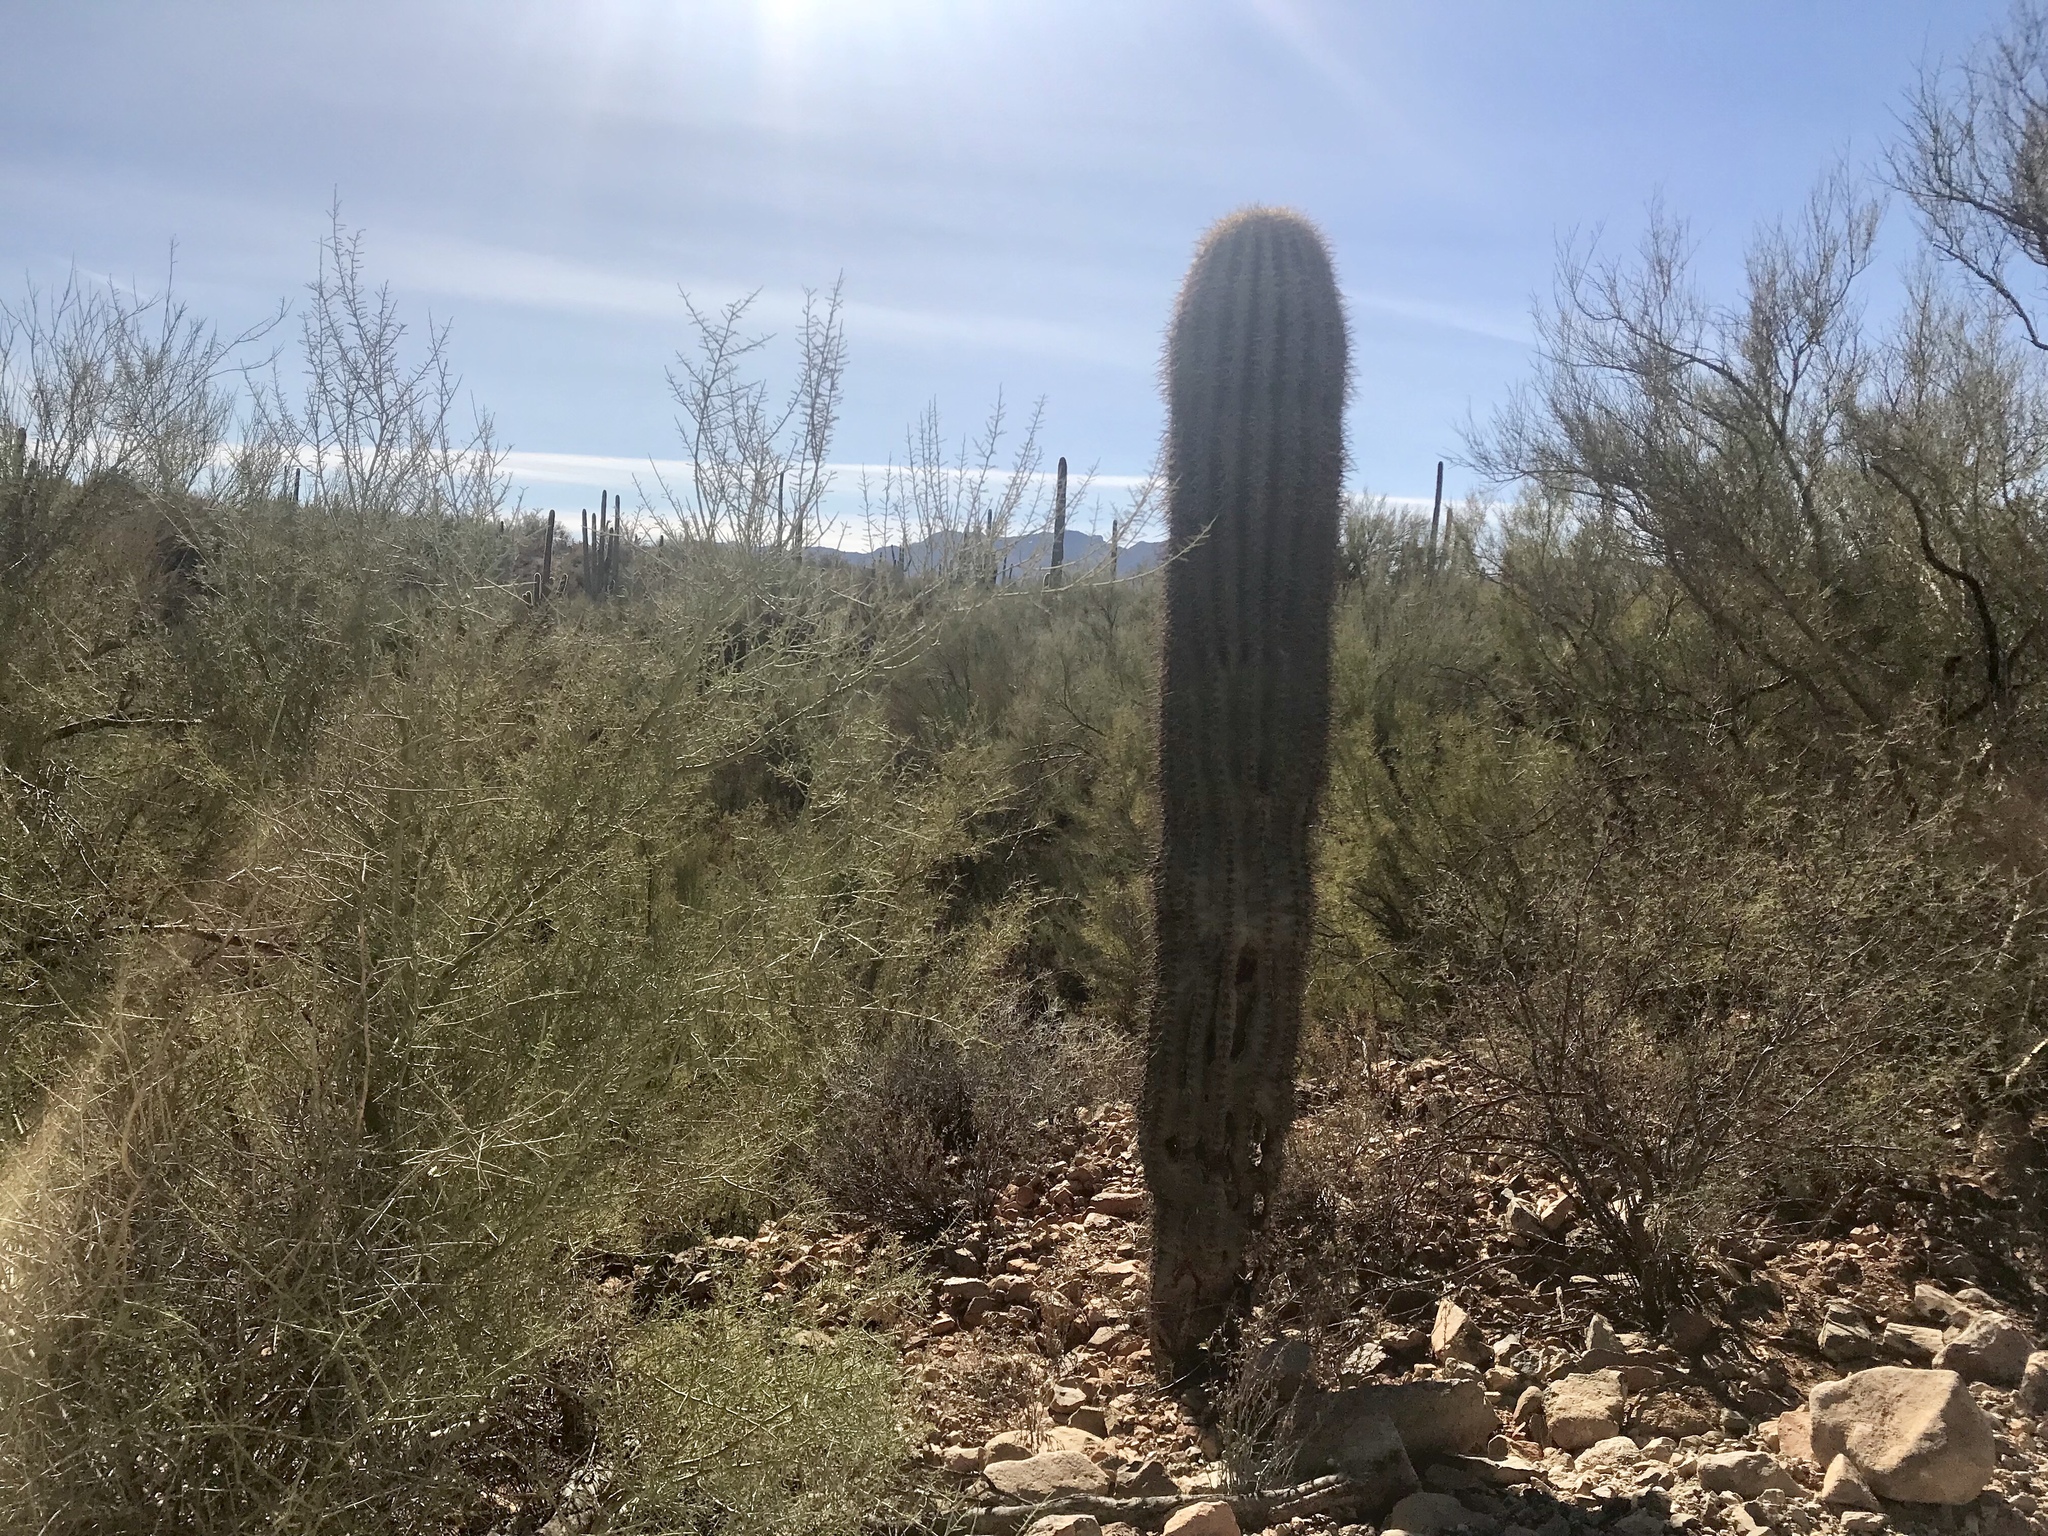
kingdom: Plantae
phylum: Tracheophyta
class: Magnoliopsida
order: Caryophyllales
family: Cactaceae
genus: Carnegiea
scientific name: Carnegiea gigantea
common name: Saguaro
